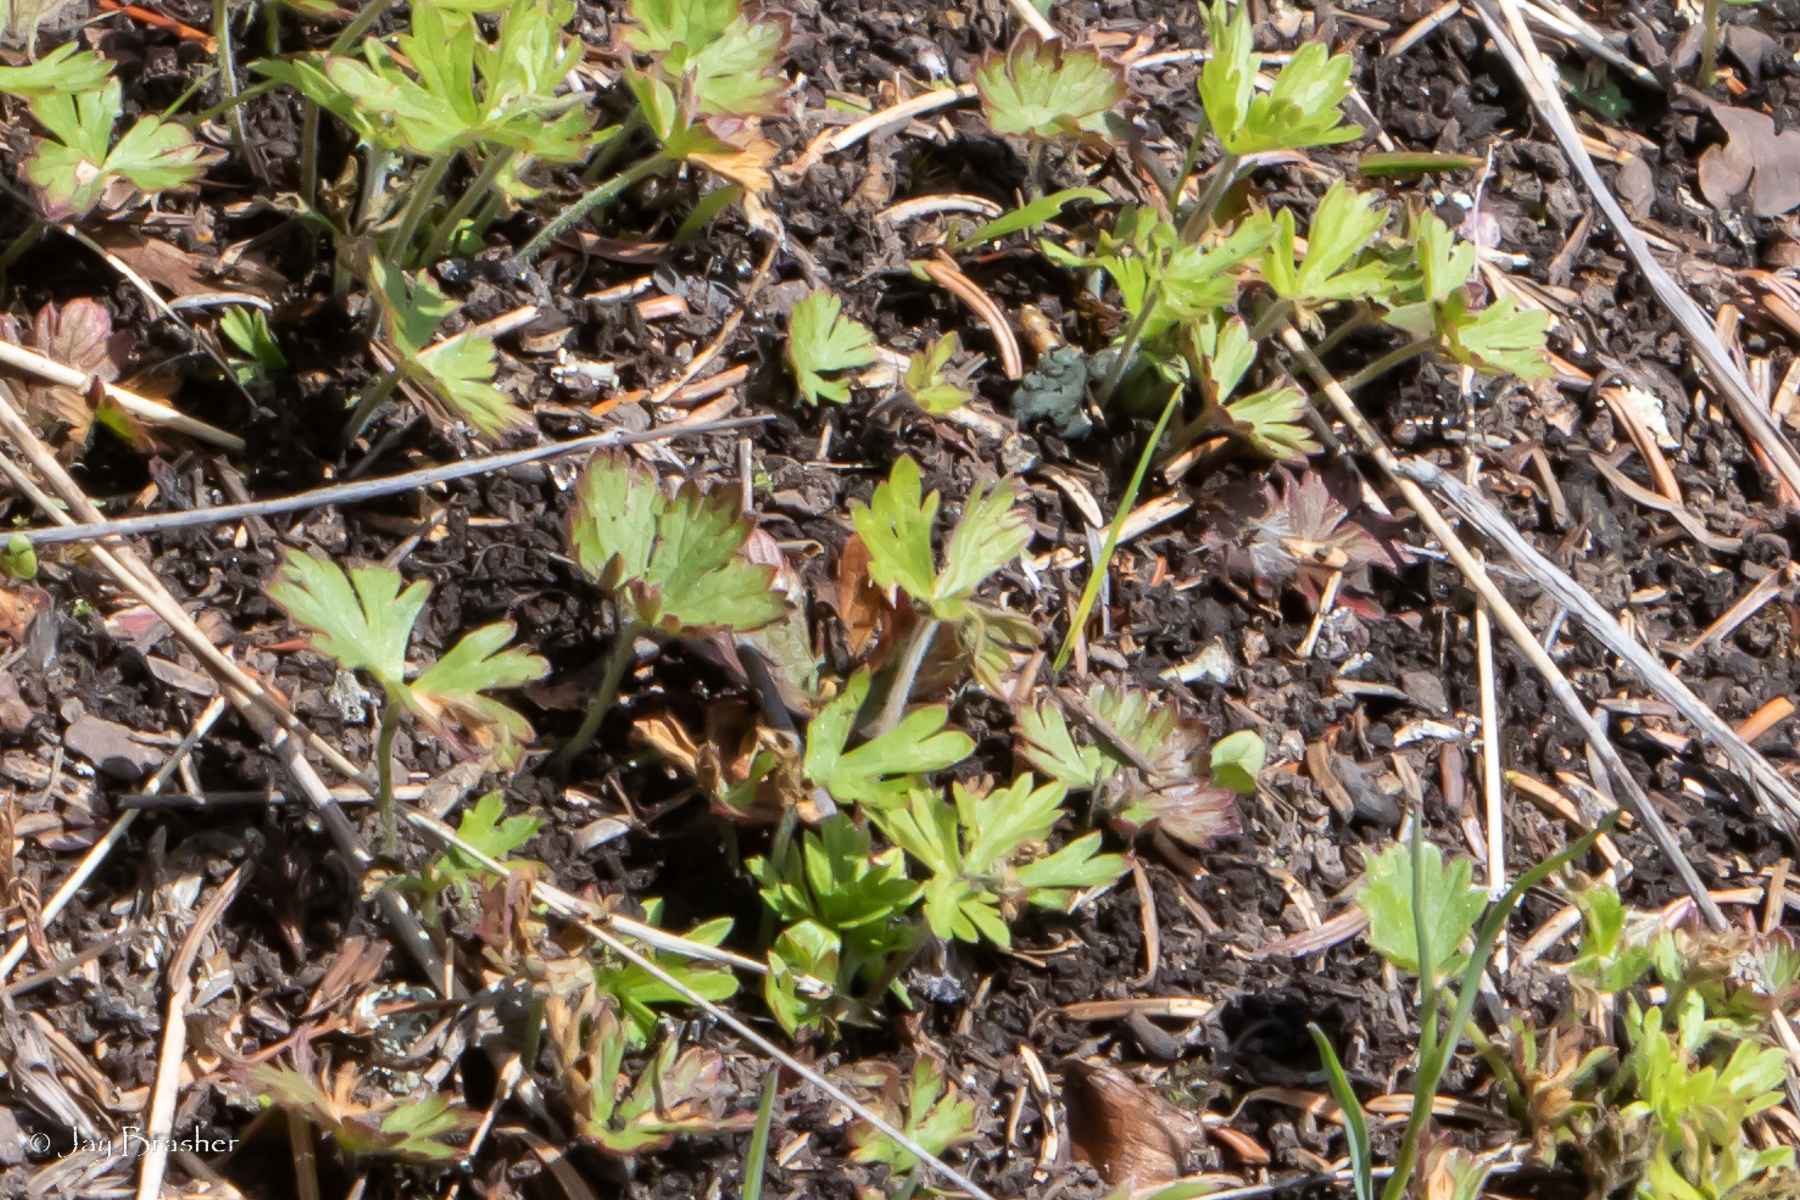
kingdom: Plantae
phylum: Tracheophyta
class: Magnoliopsida
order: Geraniales
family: Geraniaceae
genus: Geranium
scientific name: Geranium bicknellii
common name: Bicknell's cranesbill
